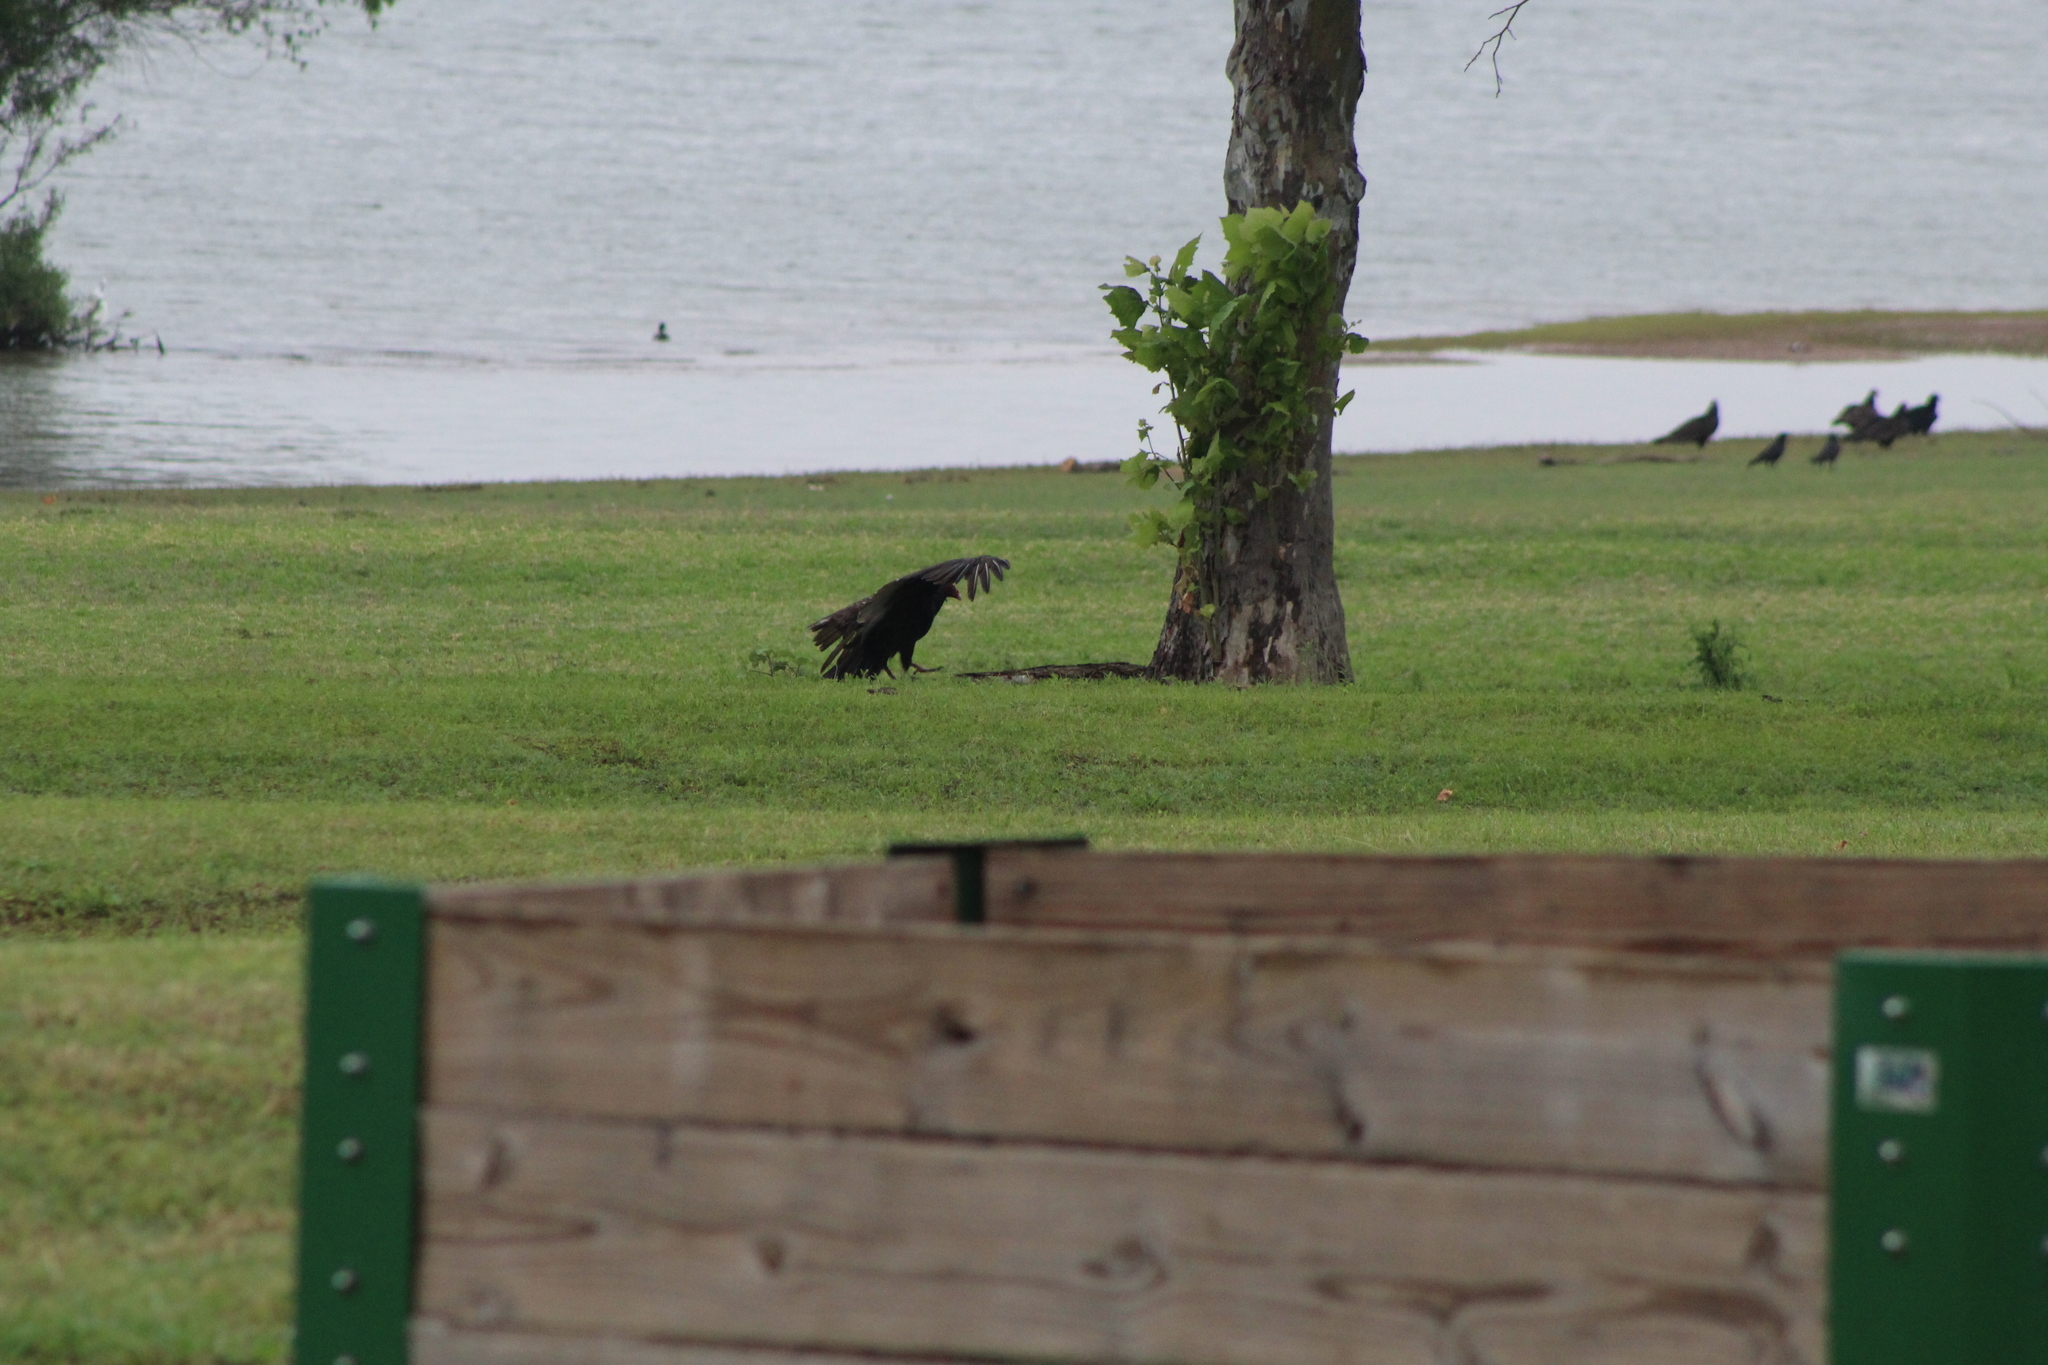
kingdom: Animalia
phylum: Chordata
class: Aves
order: Accipitriformes
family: Cathartidae
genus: Cathartes
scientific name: Cathartes aura
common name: Turkey vulture
